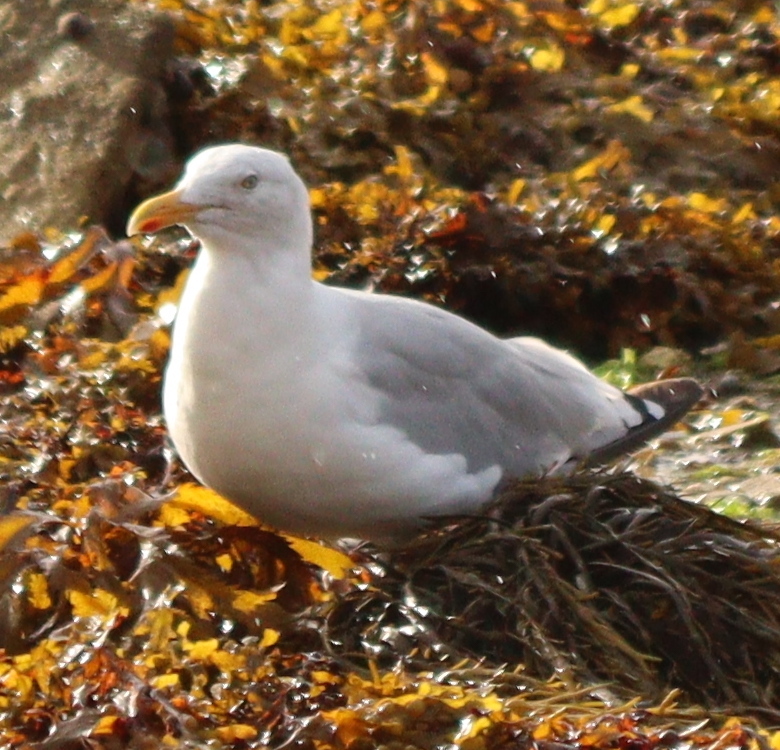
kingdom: Animalia
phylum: Chordata
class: Aves
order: Charadriiformes
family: Laridae
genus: Larus
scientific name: Larus argentatus
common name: Herring gull
